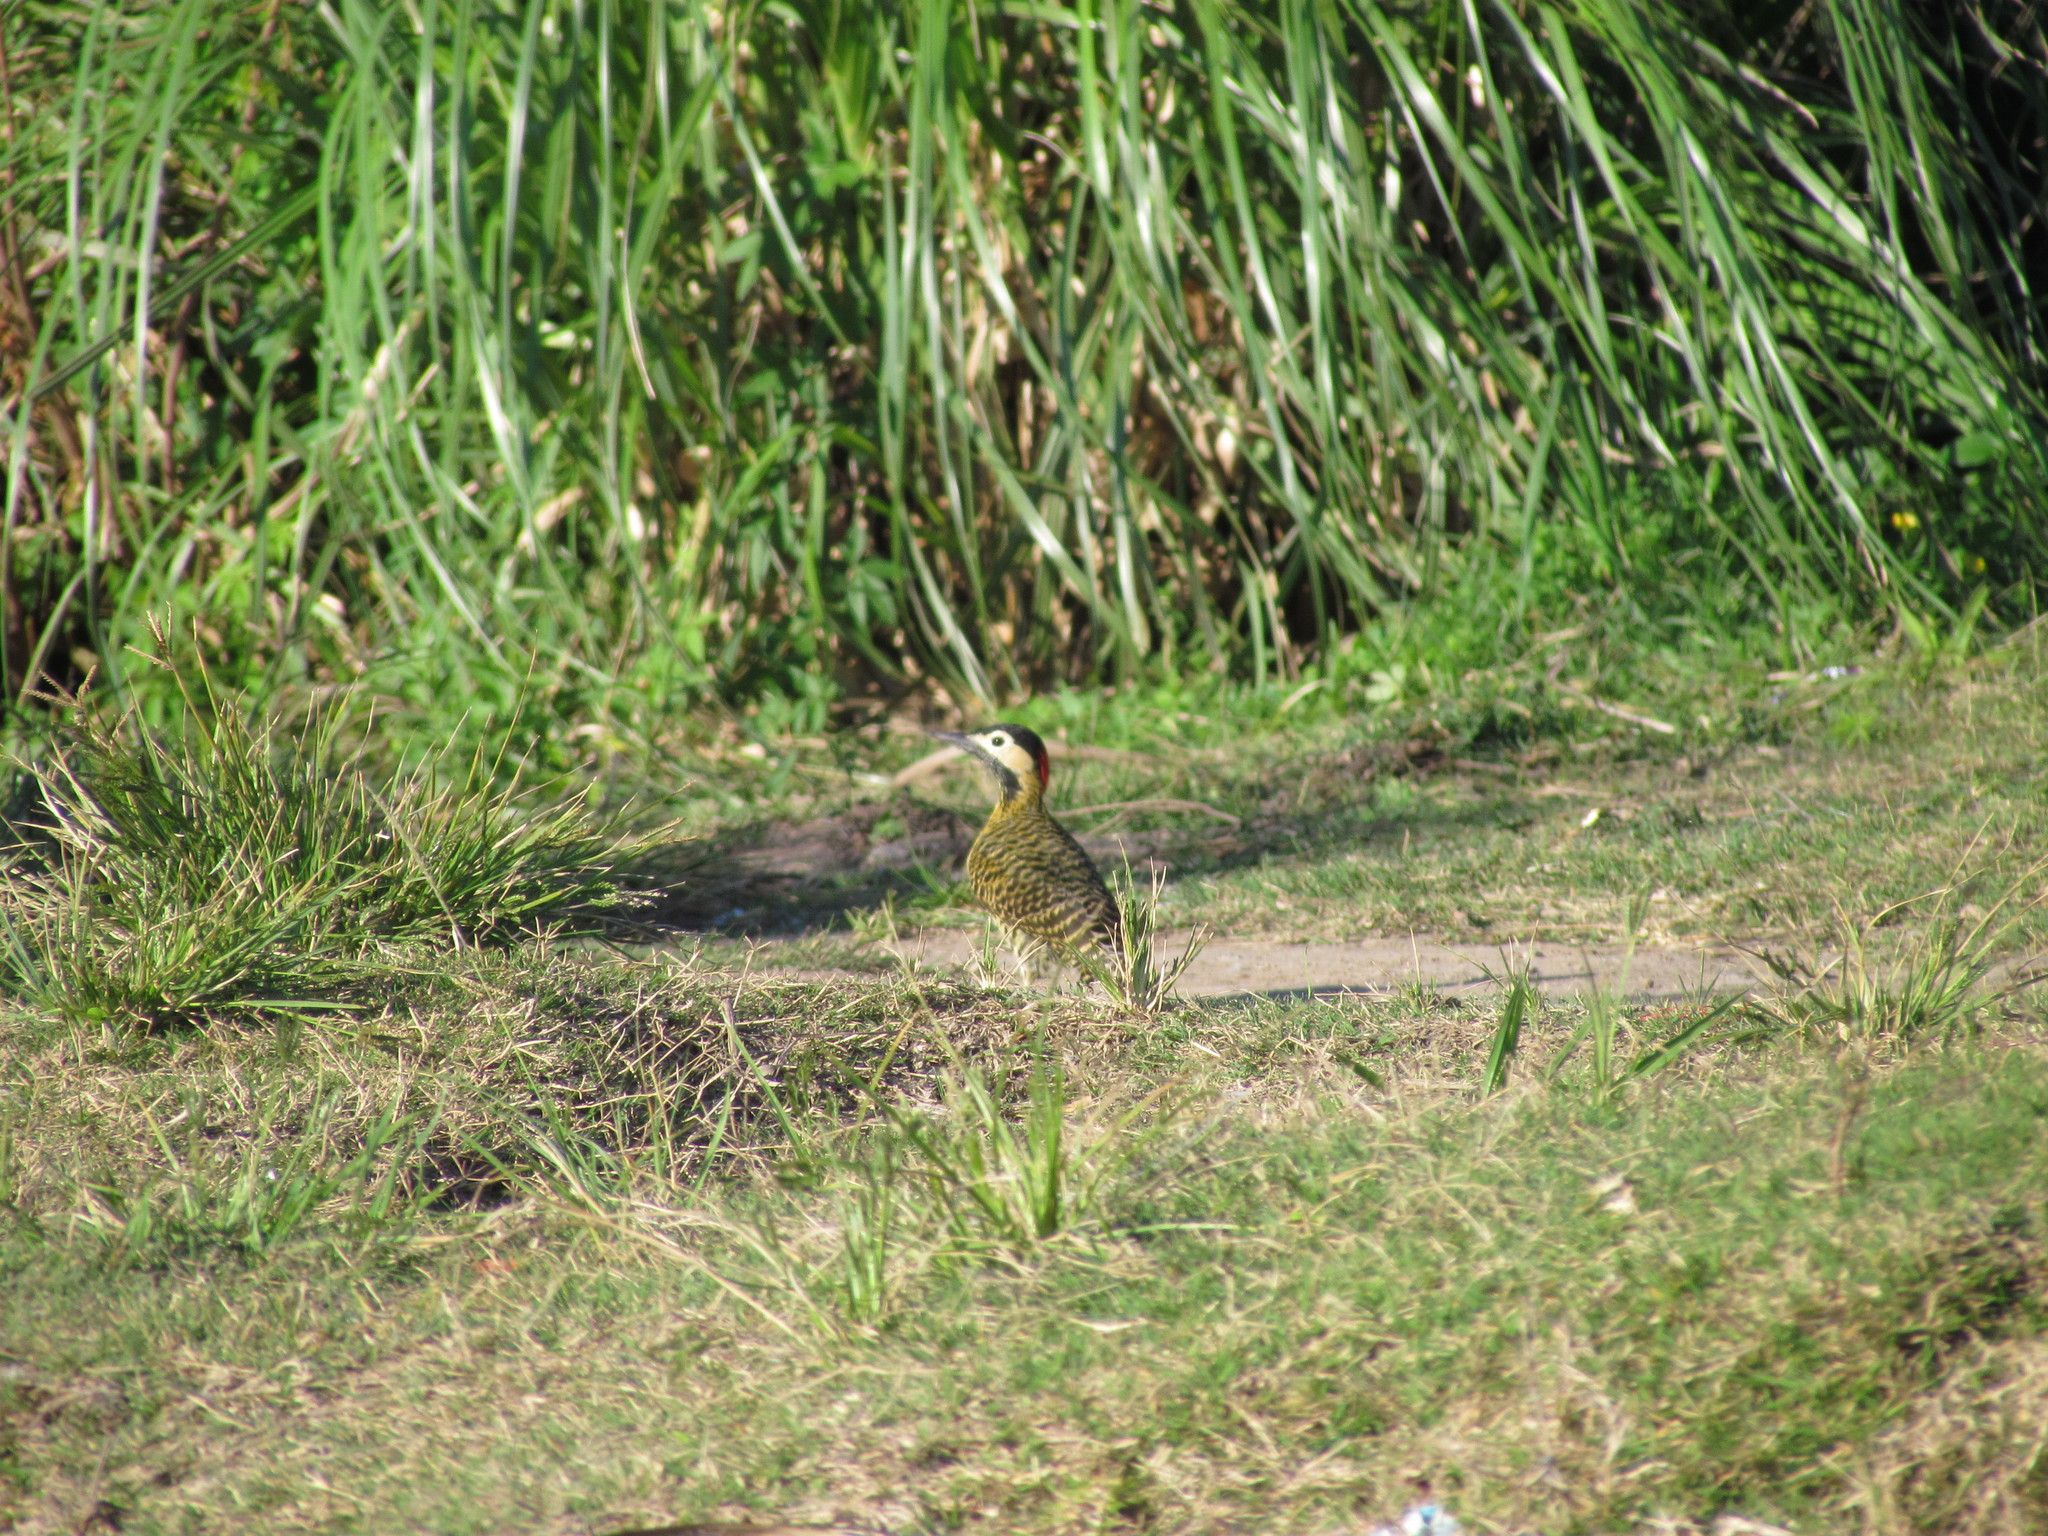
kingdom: Animalia
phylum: Chordata
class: Aves
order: Piciformes
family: Picidae
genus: Colaptes
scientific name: Colaptes melanochloros
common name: Green-barred woodpecker
